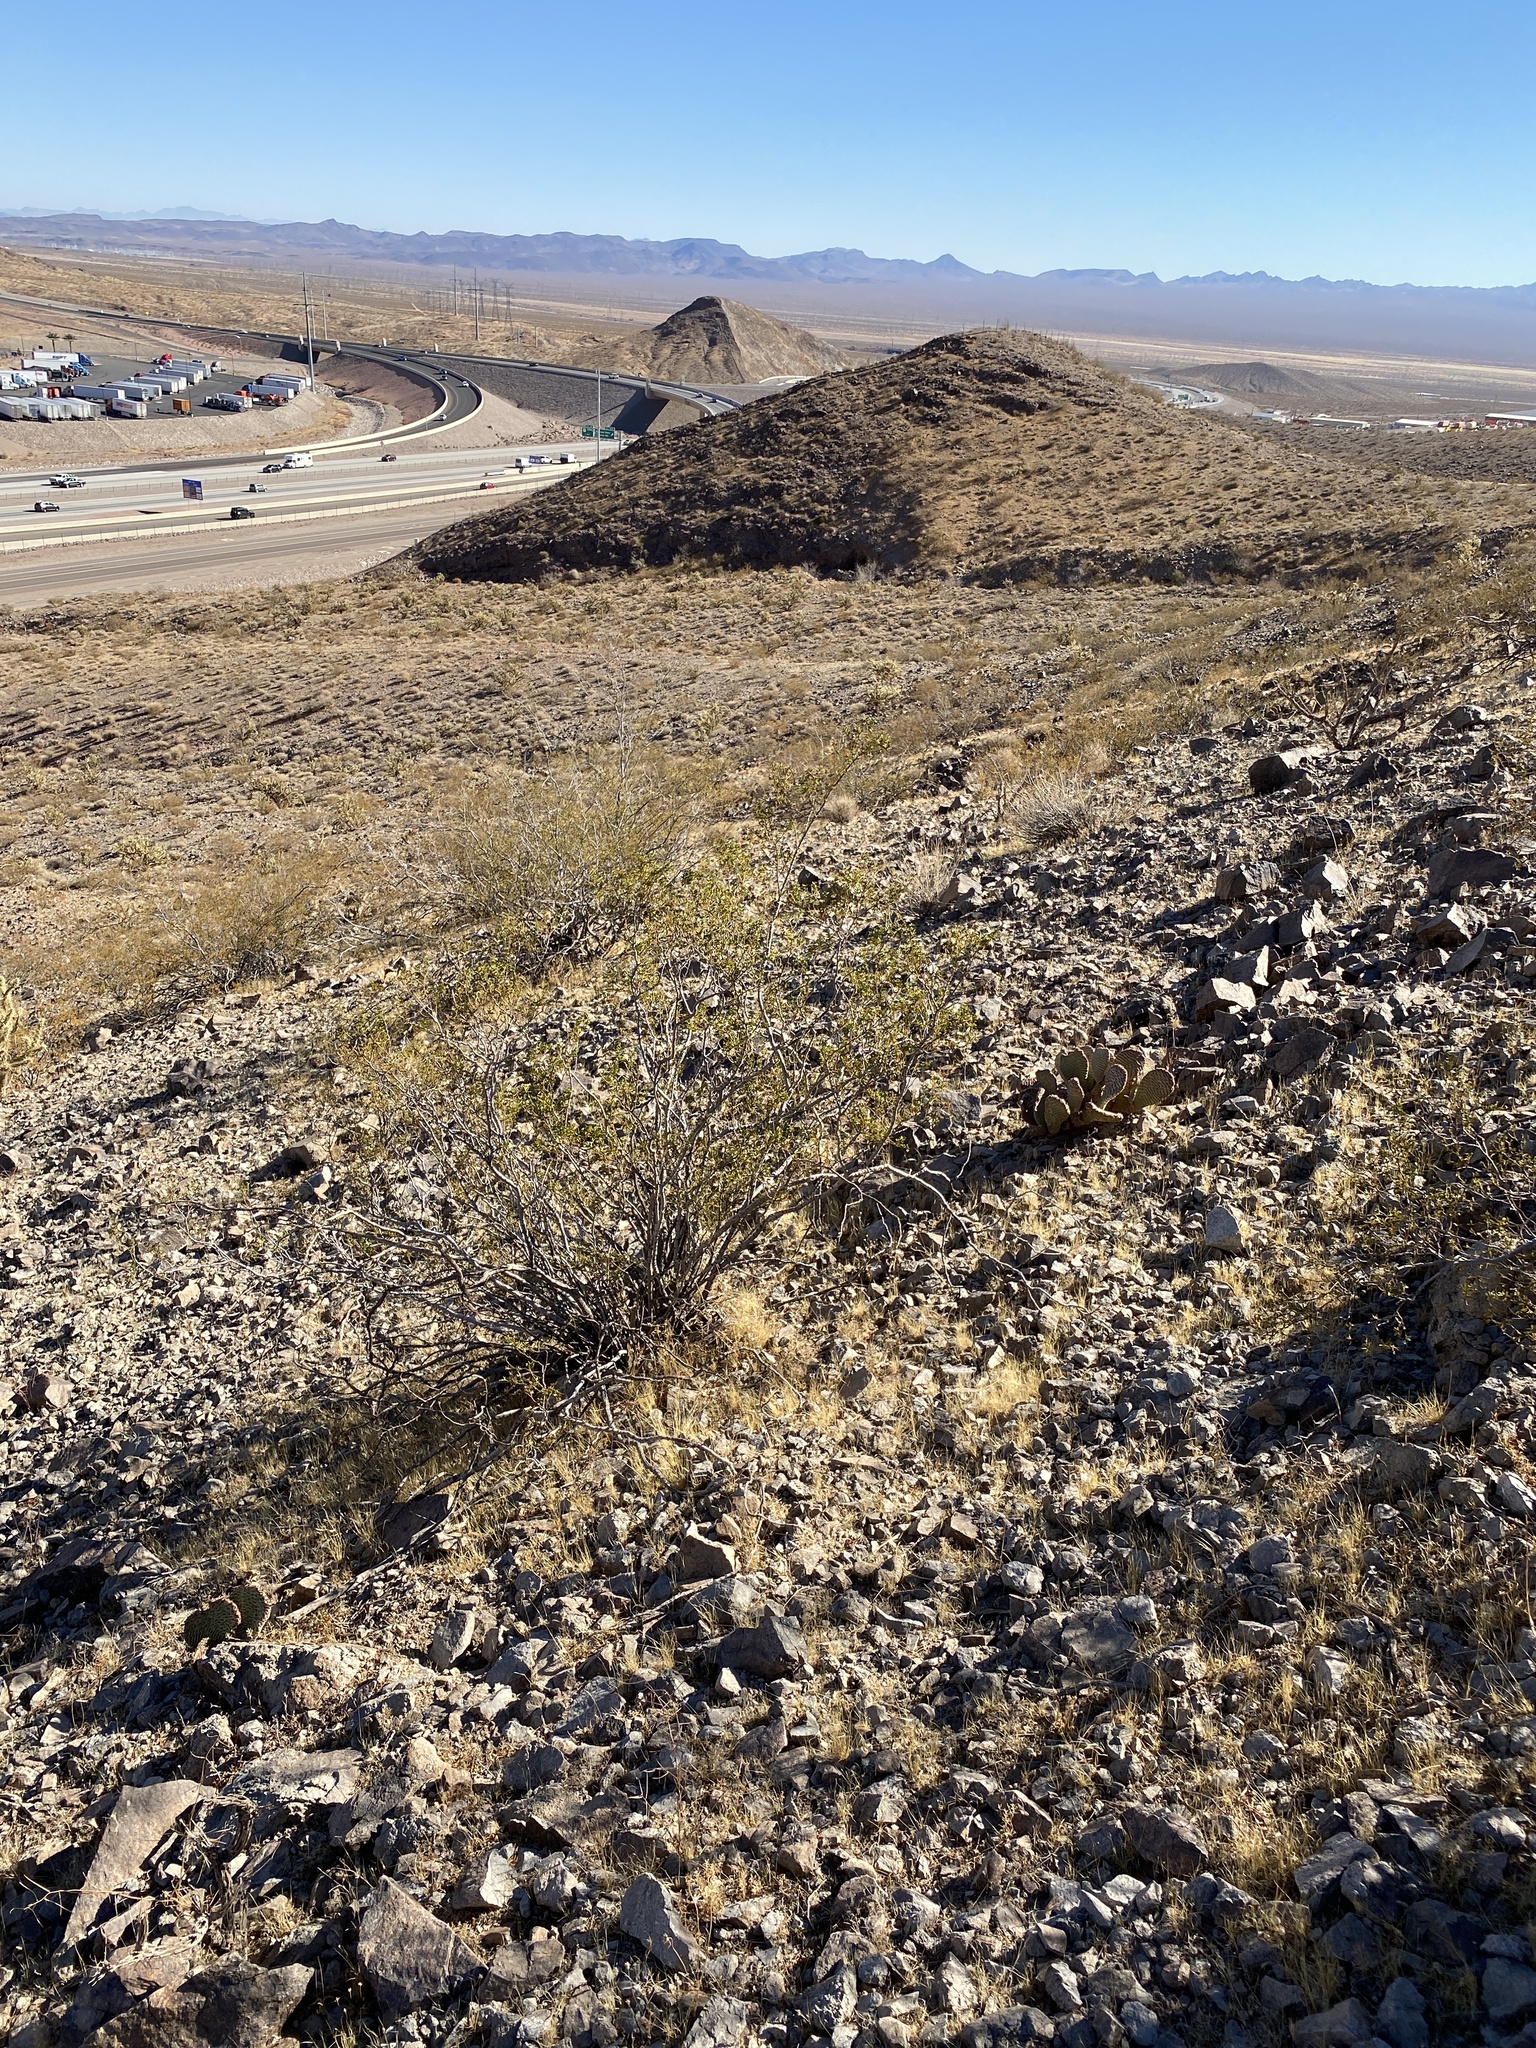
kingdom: Plantae
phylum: Tracheophyta
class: Magnoliopsida
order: Zygophyllales
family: Zygophyllaceae
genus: Larrea
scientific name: Larrea tridentata
